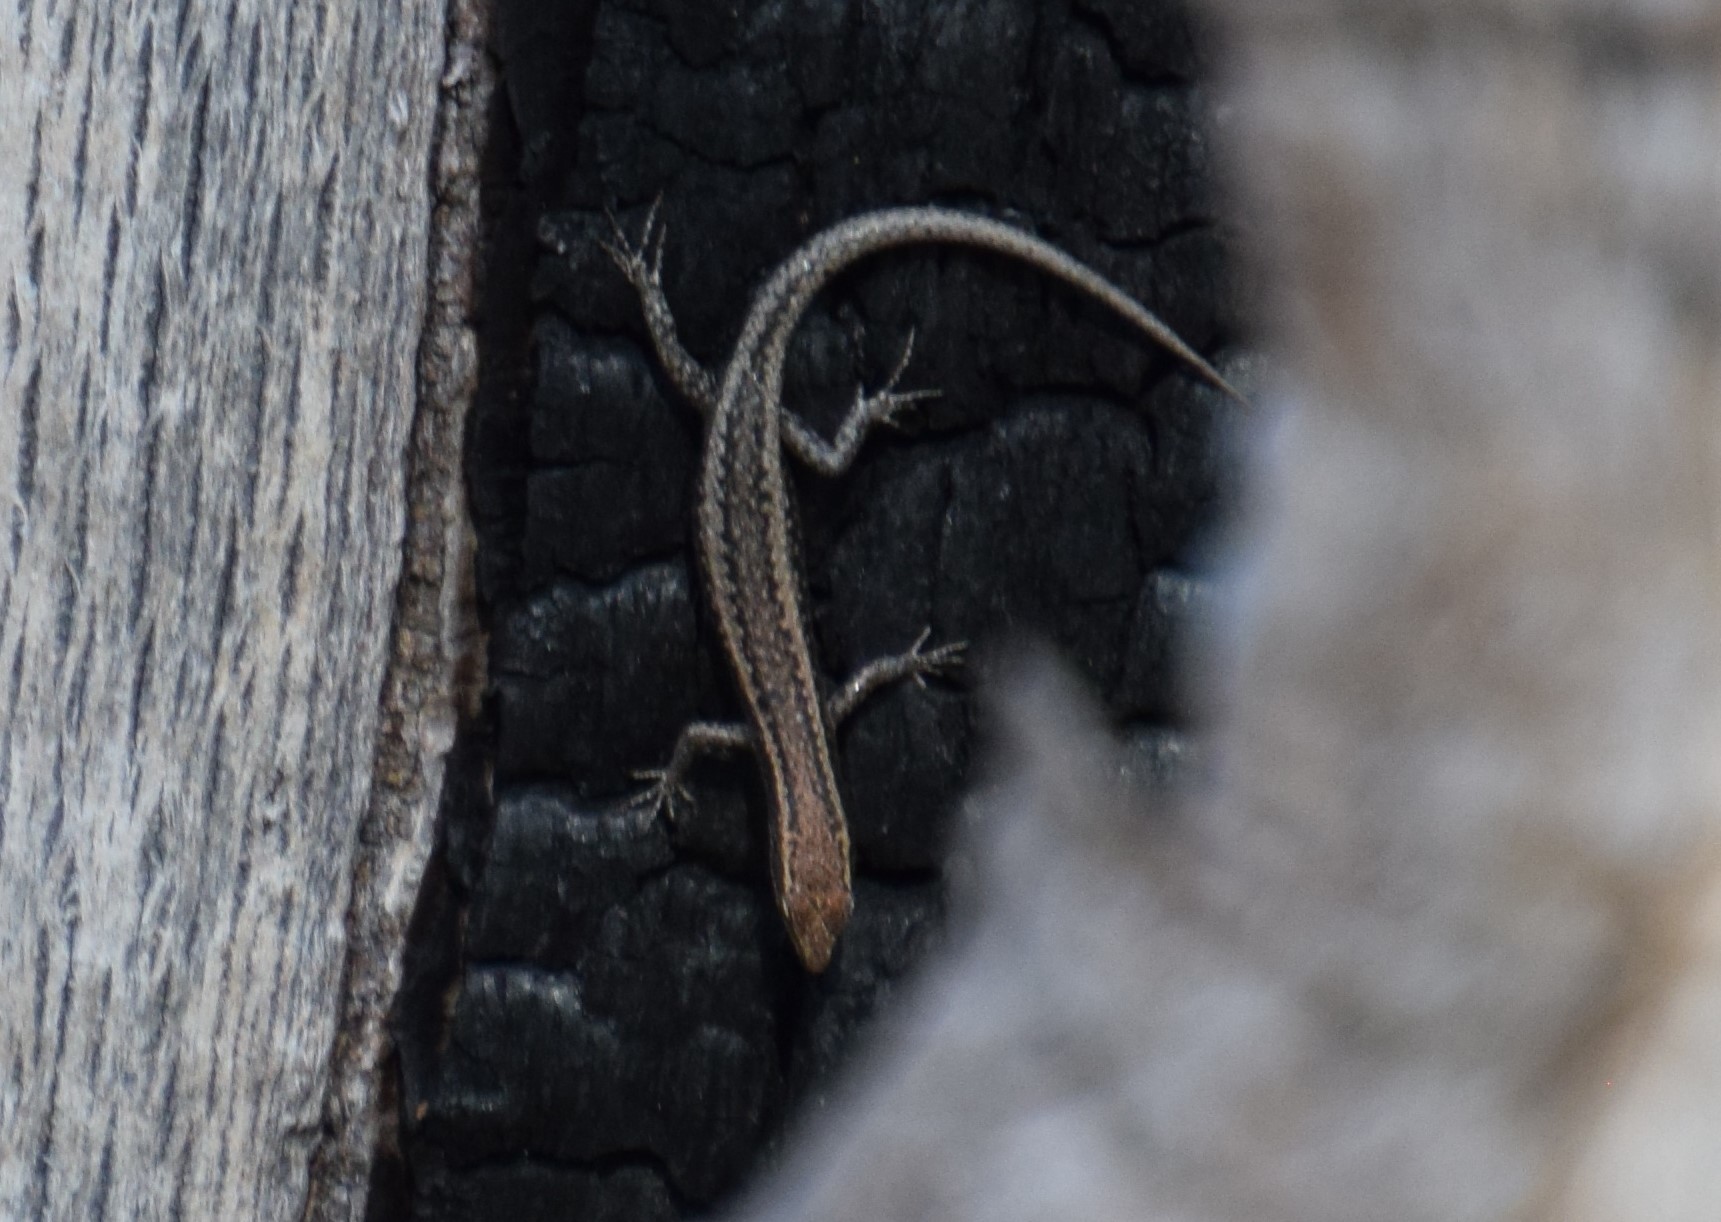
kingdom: Animalia
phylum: Chordata
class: Squamata
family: Scincidae
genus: Cryptoblepharus
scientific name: Cryptoblepharus buchananii
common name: Buchanan's snake-eyed skink
